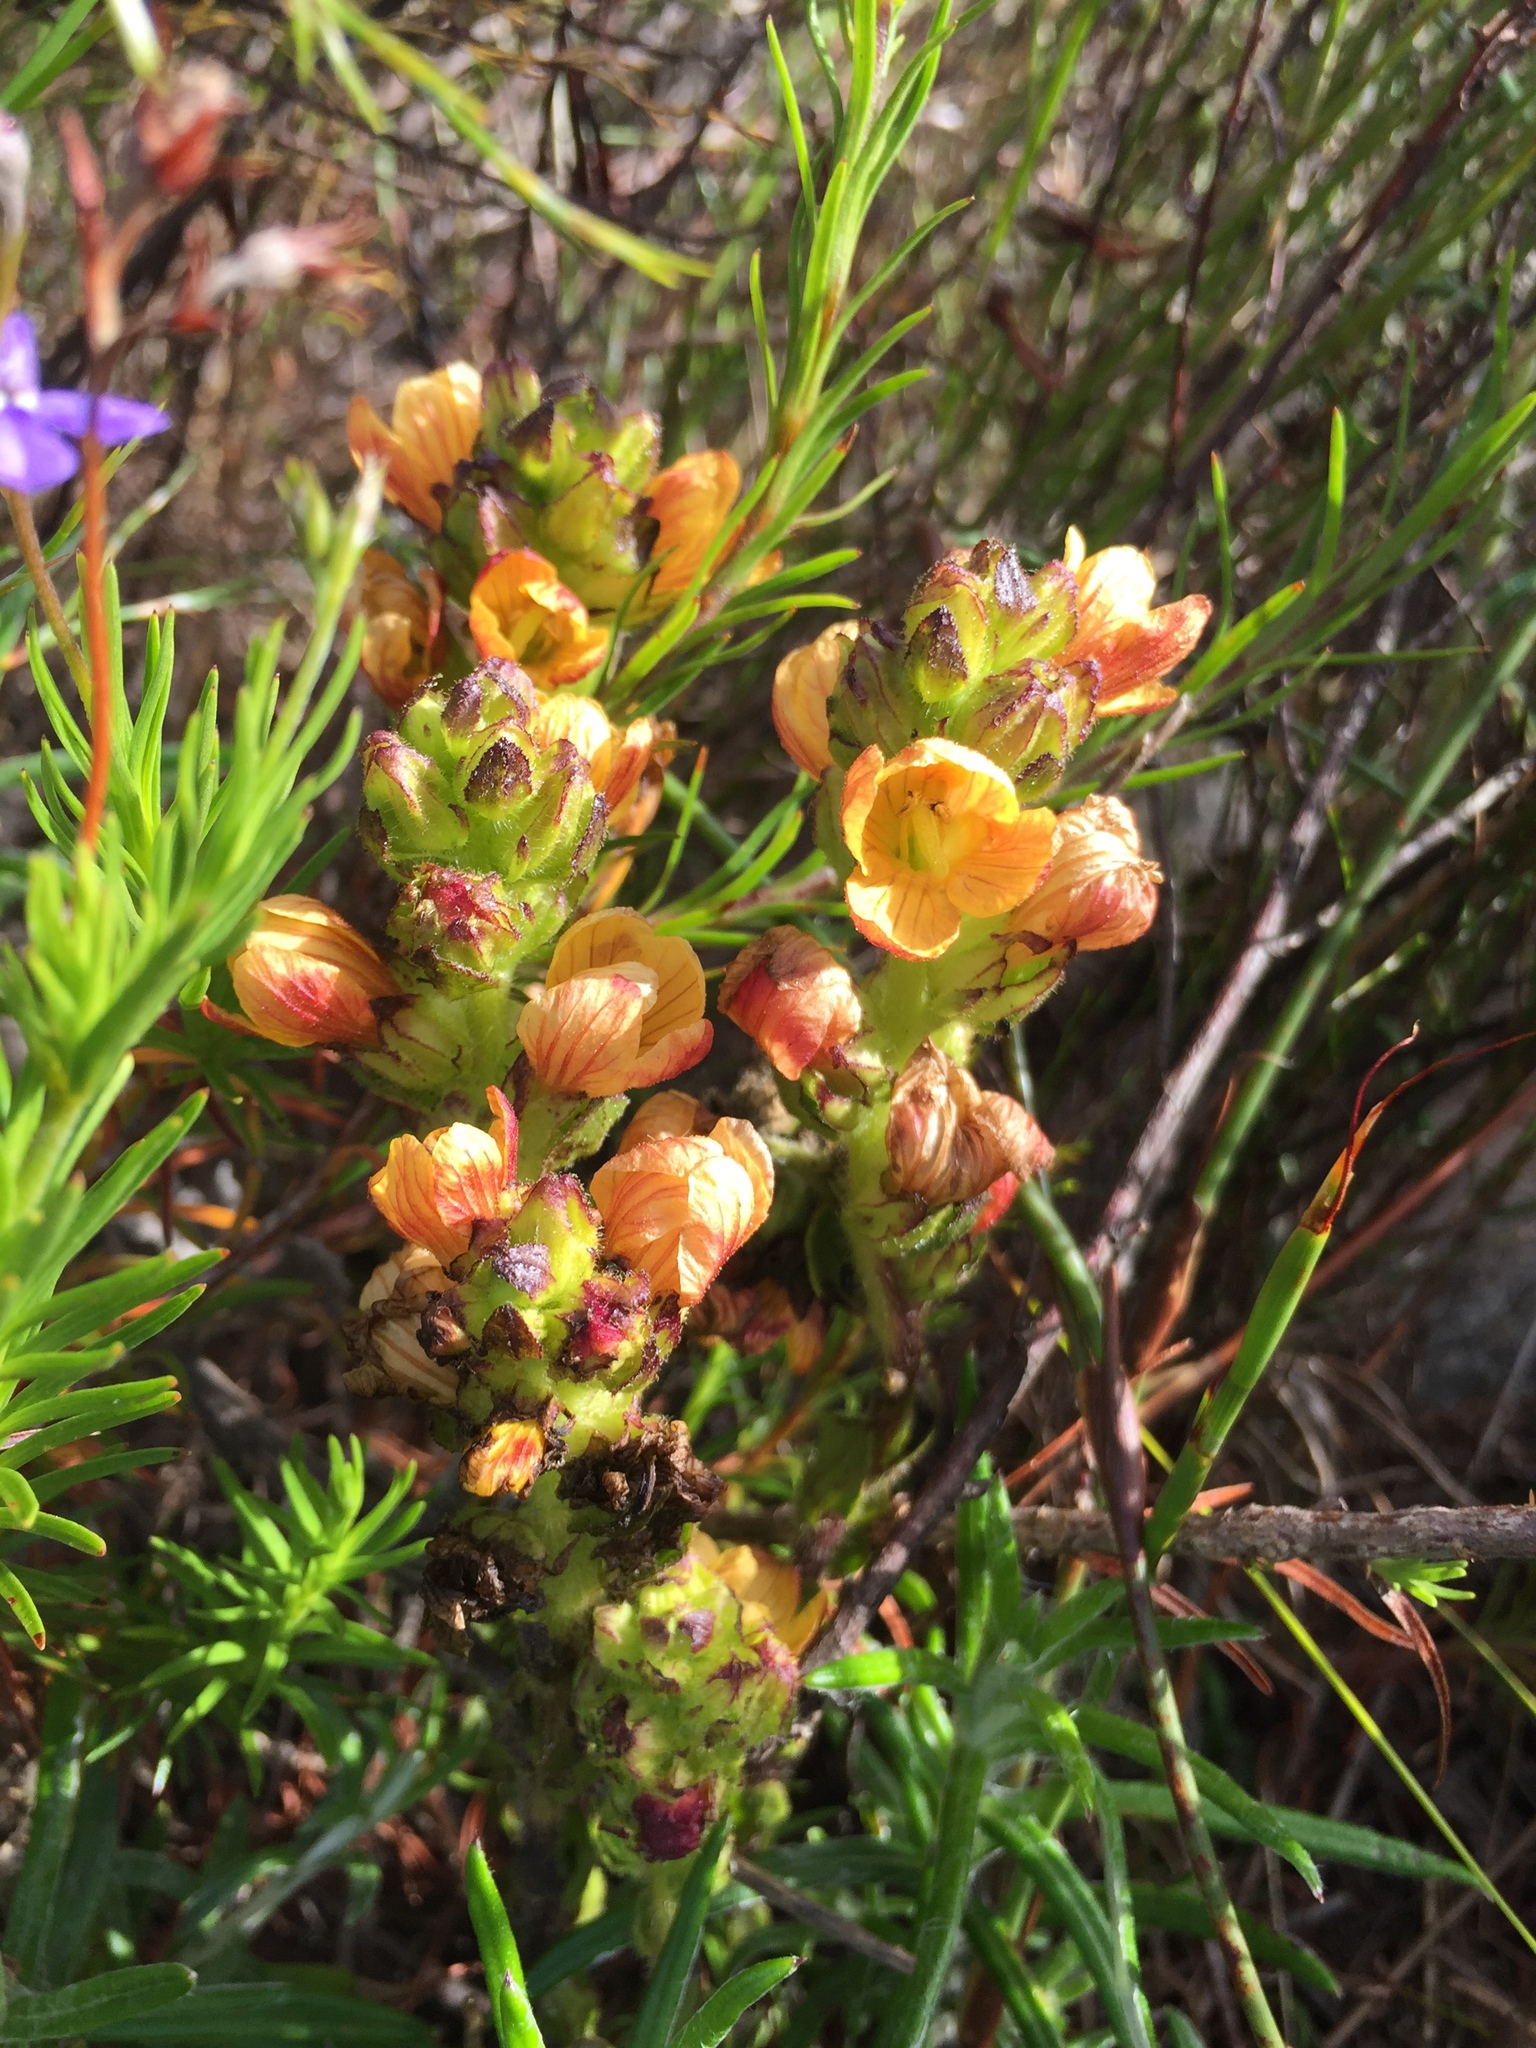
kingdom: Plantae
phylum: Tracheophyta
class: Magnoliopsida
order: Lamiales
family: Orobanchaceae
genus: Alectra
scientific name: Alectra lurida
